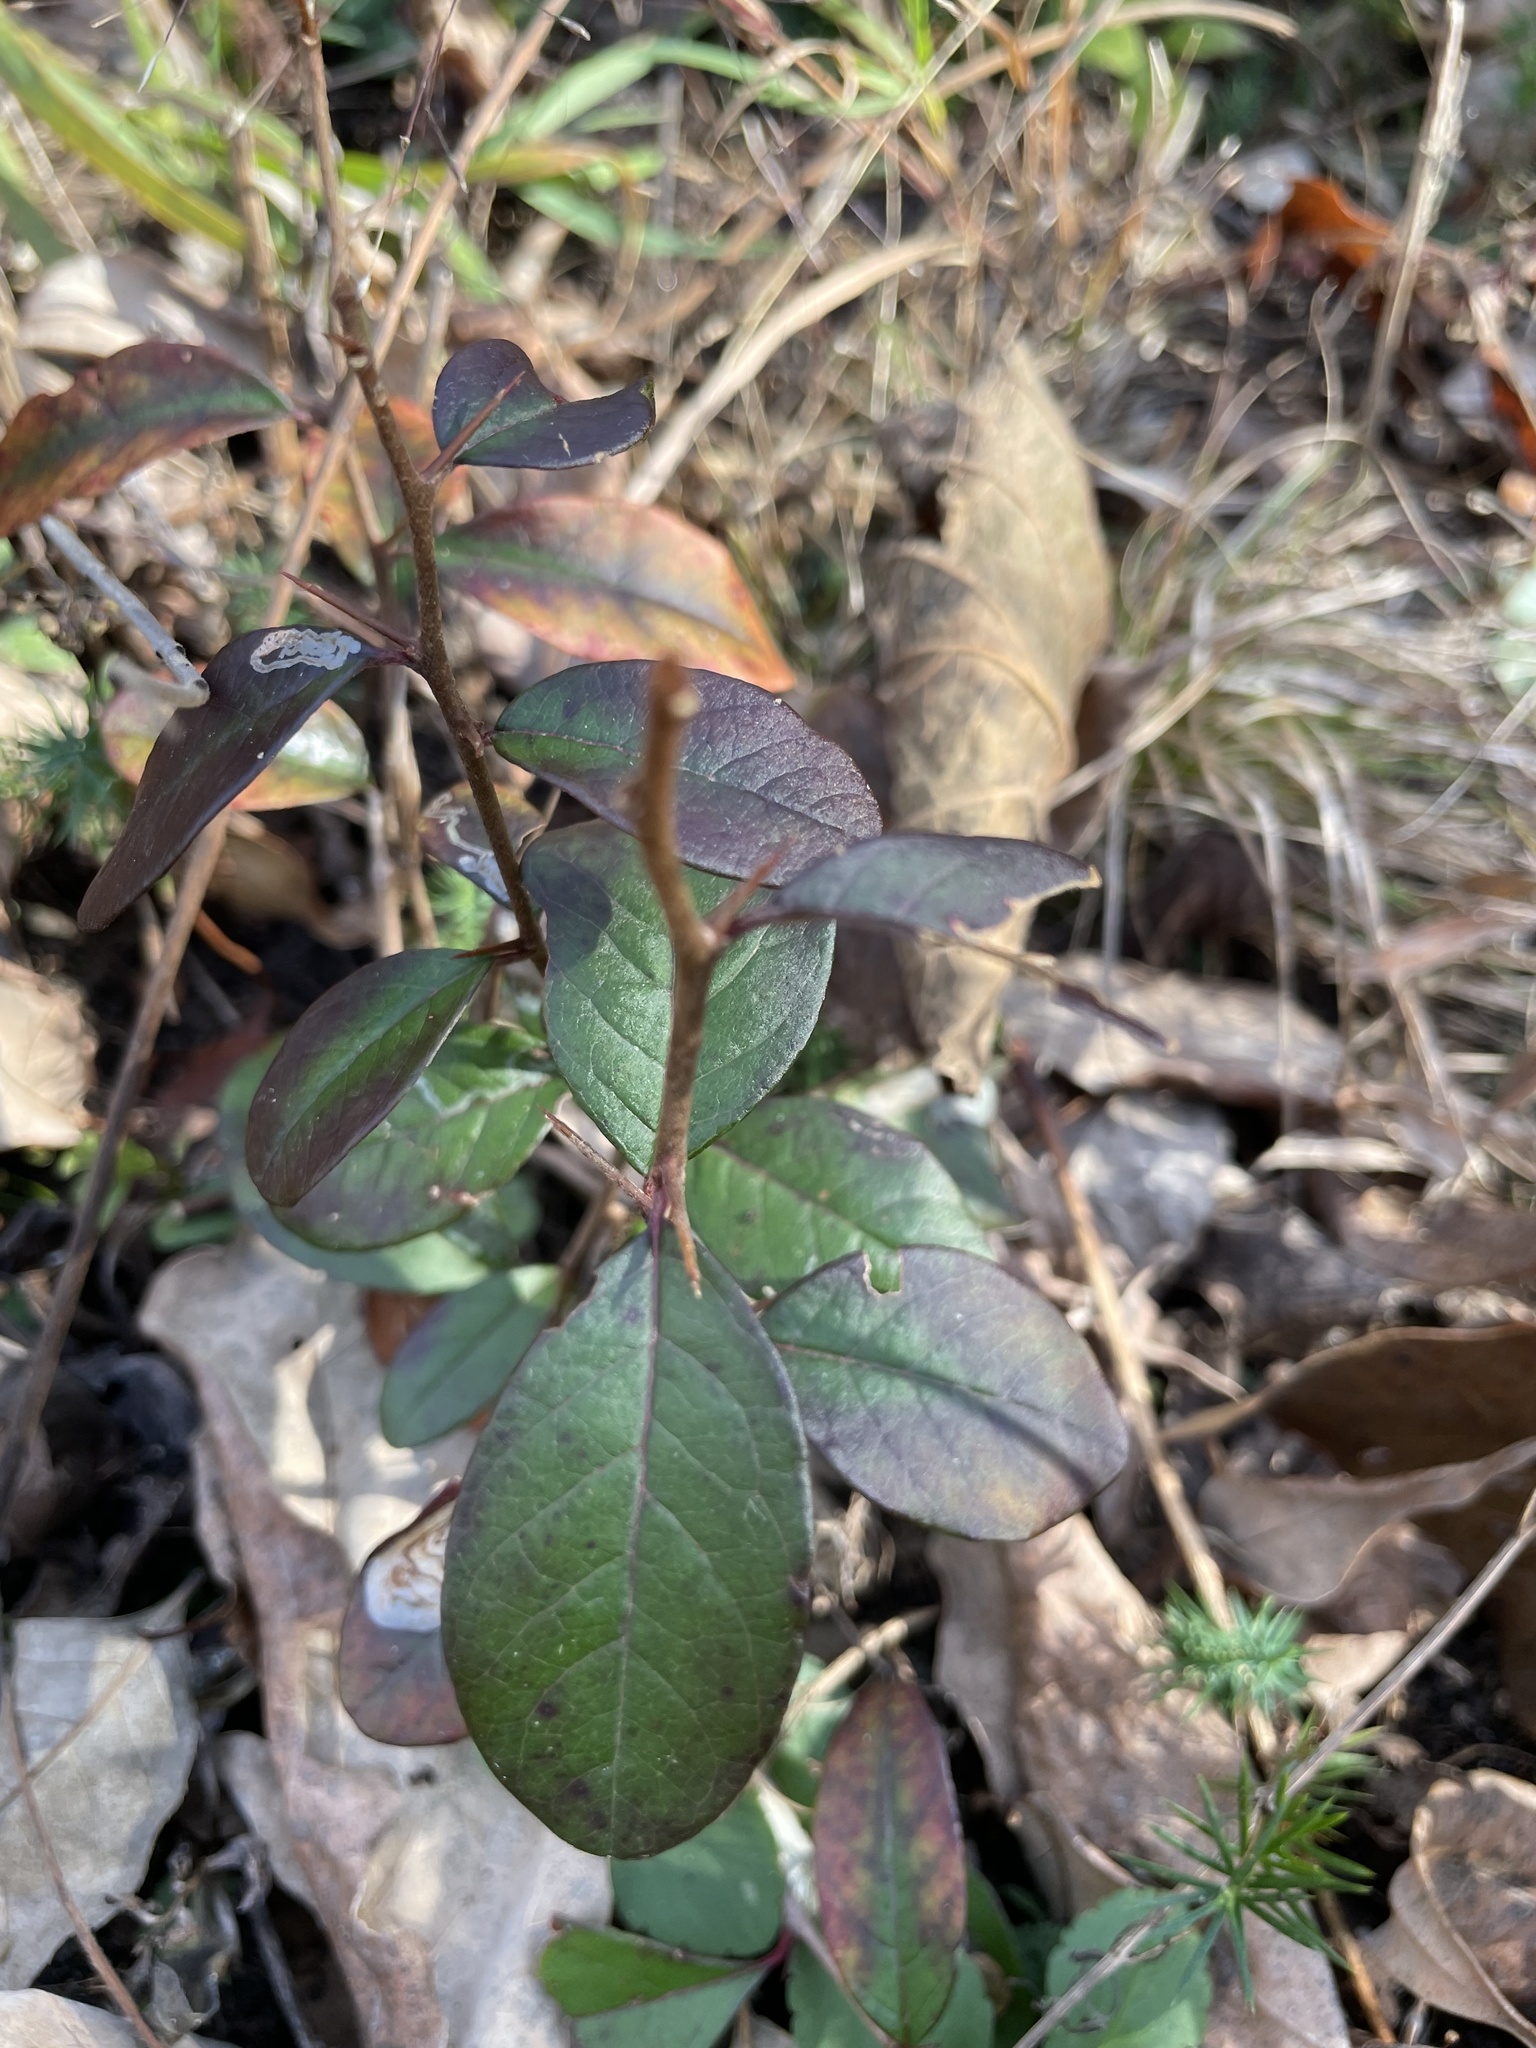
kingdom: Plantae
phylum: Tracheophyta
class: Magnoliopsida
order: Ericales
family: Sapotaceae
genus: Sideroxylon
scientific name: Sideroxylon lanuginosum
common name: Chittamwood
